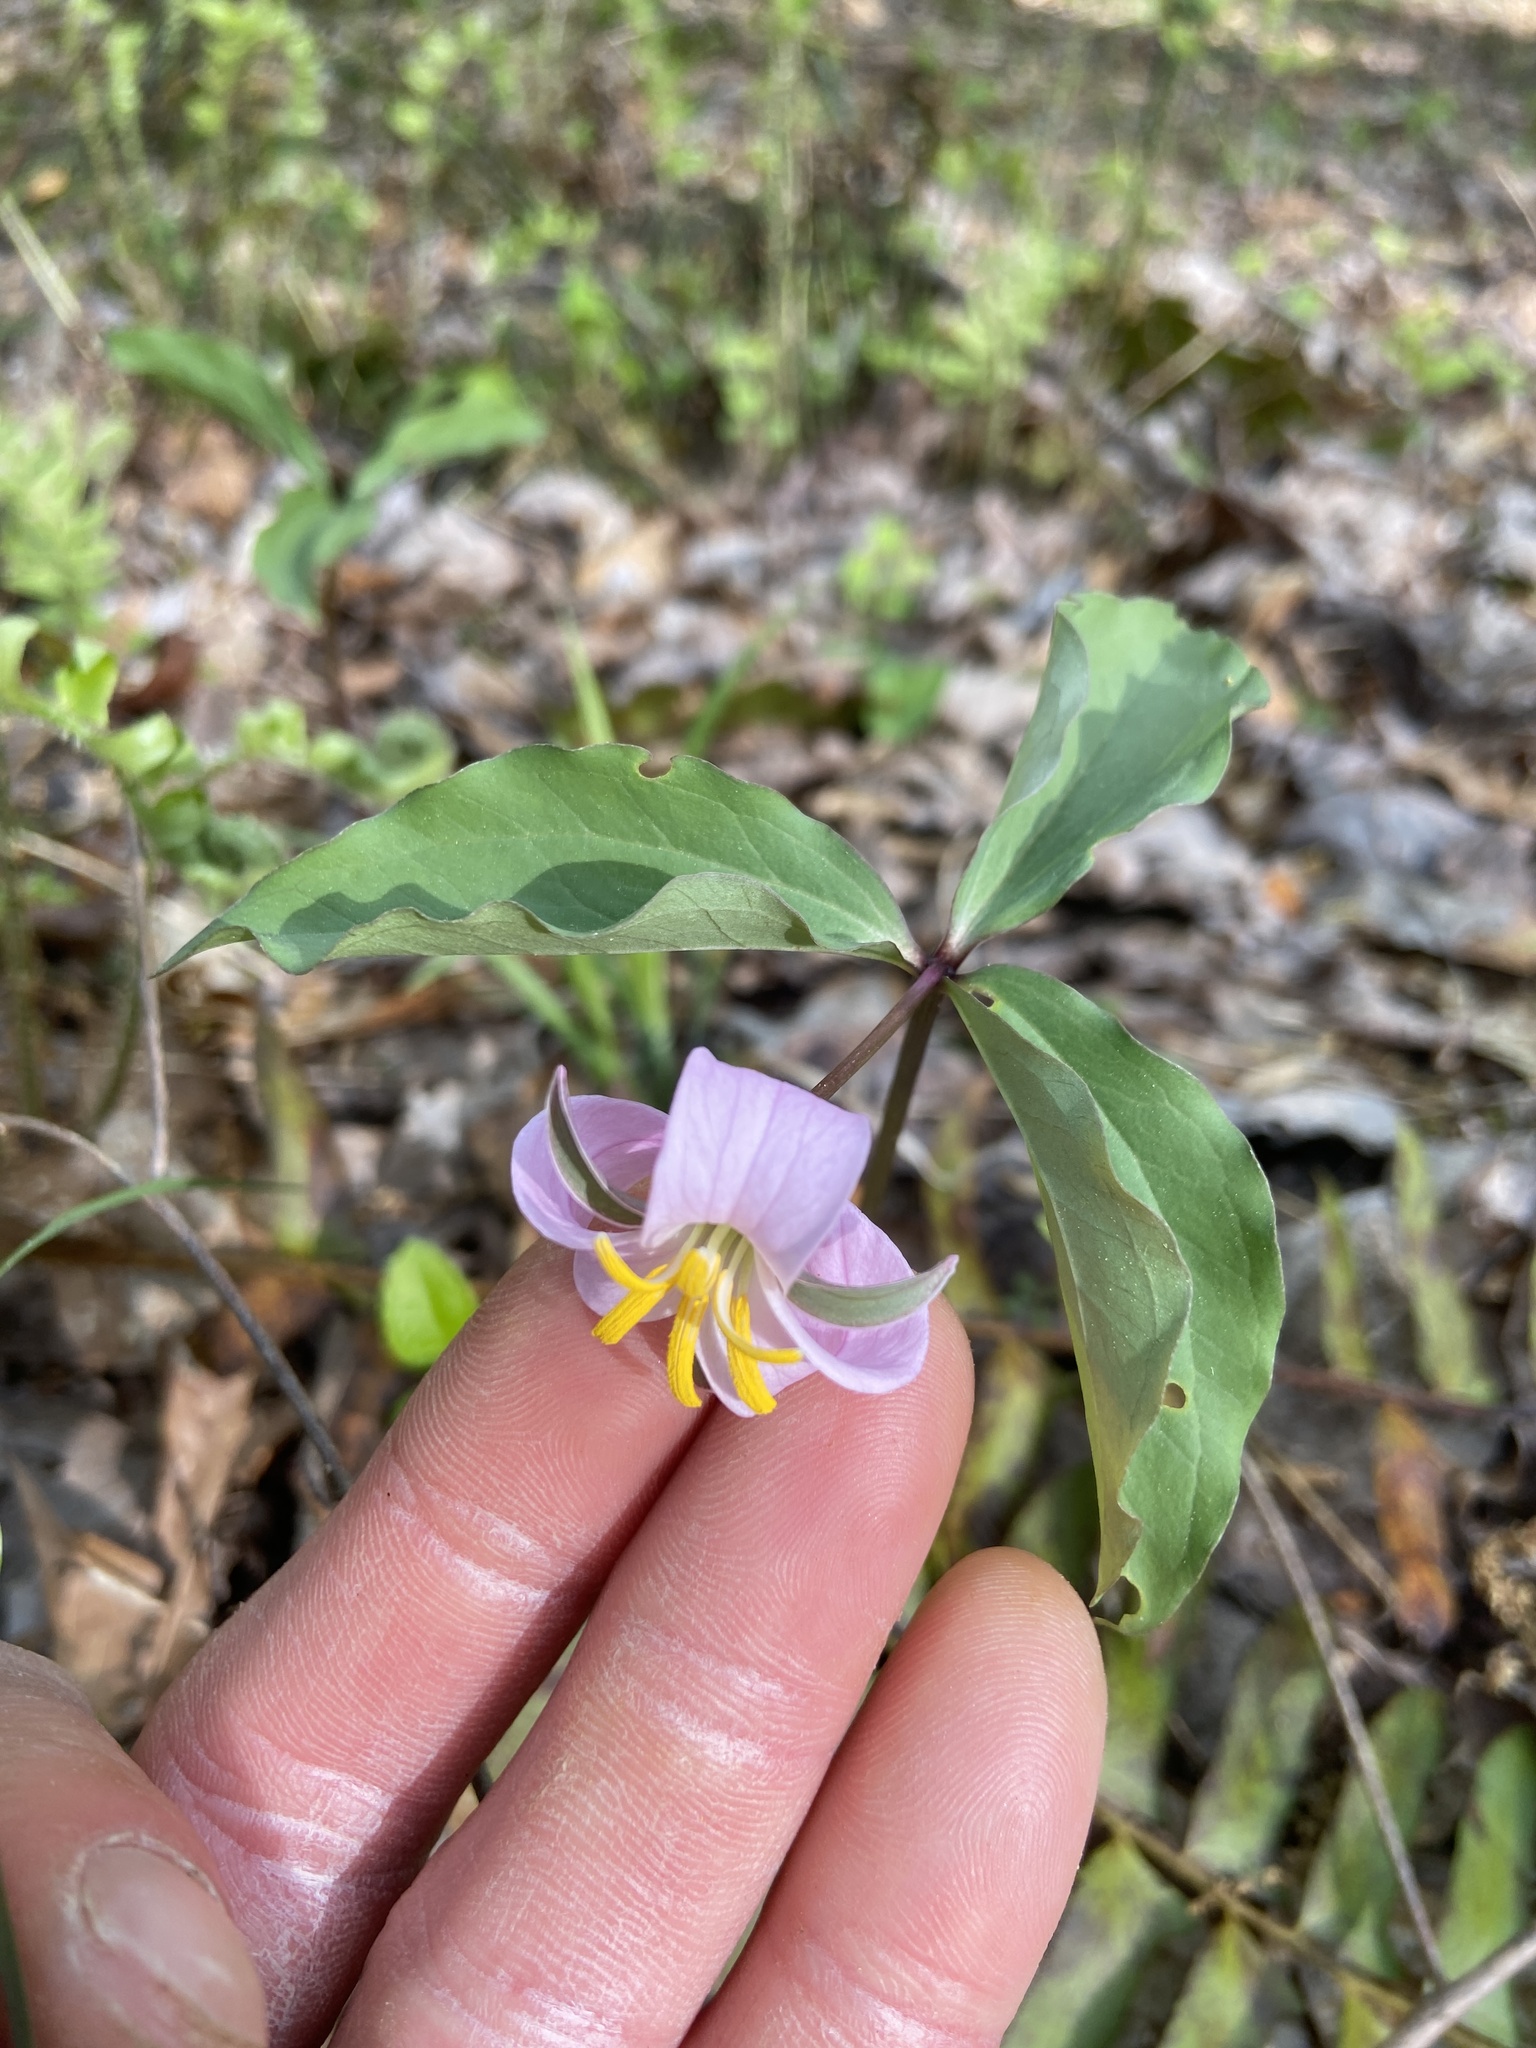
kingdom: Plantae
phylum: Tracheophyta
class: Liliopsida
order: Liliales
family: Melanthiaceae
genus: Trillium
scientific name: Trillium catesbaei
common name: Bashful trillium
